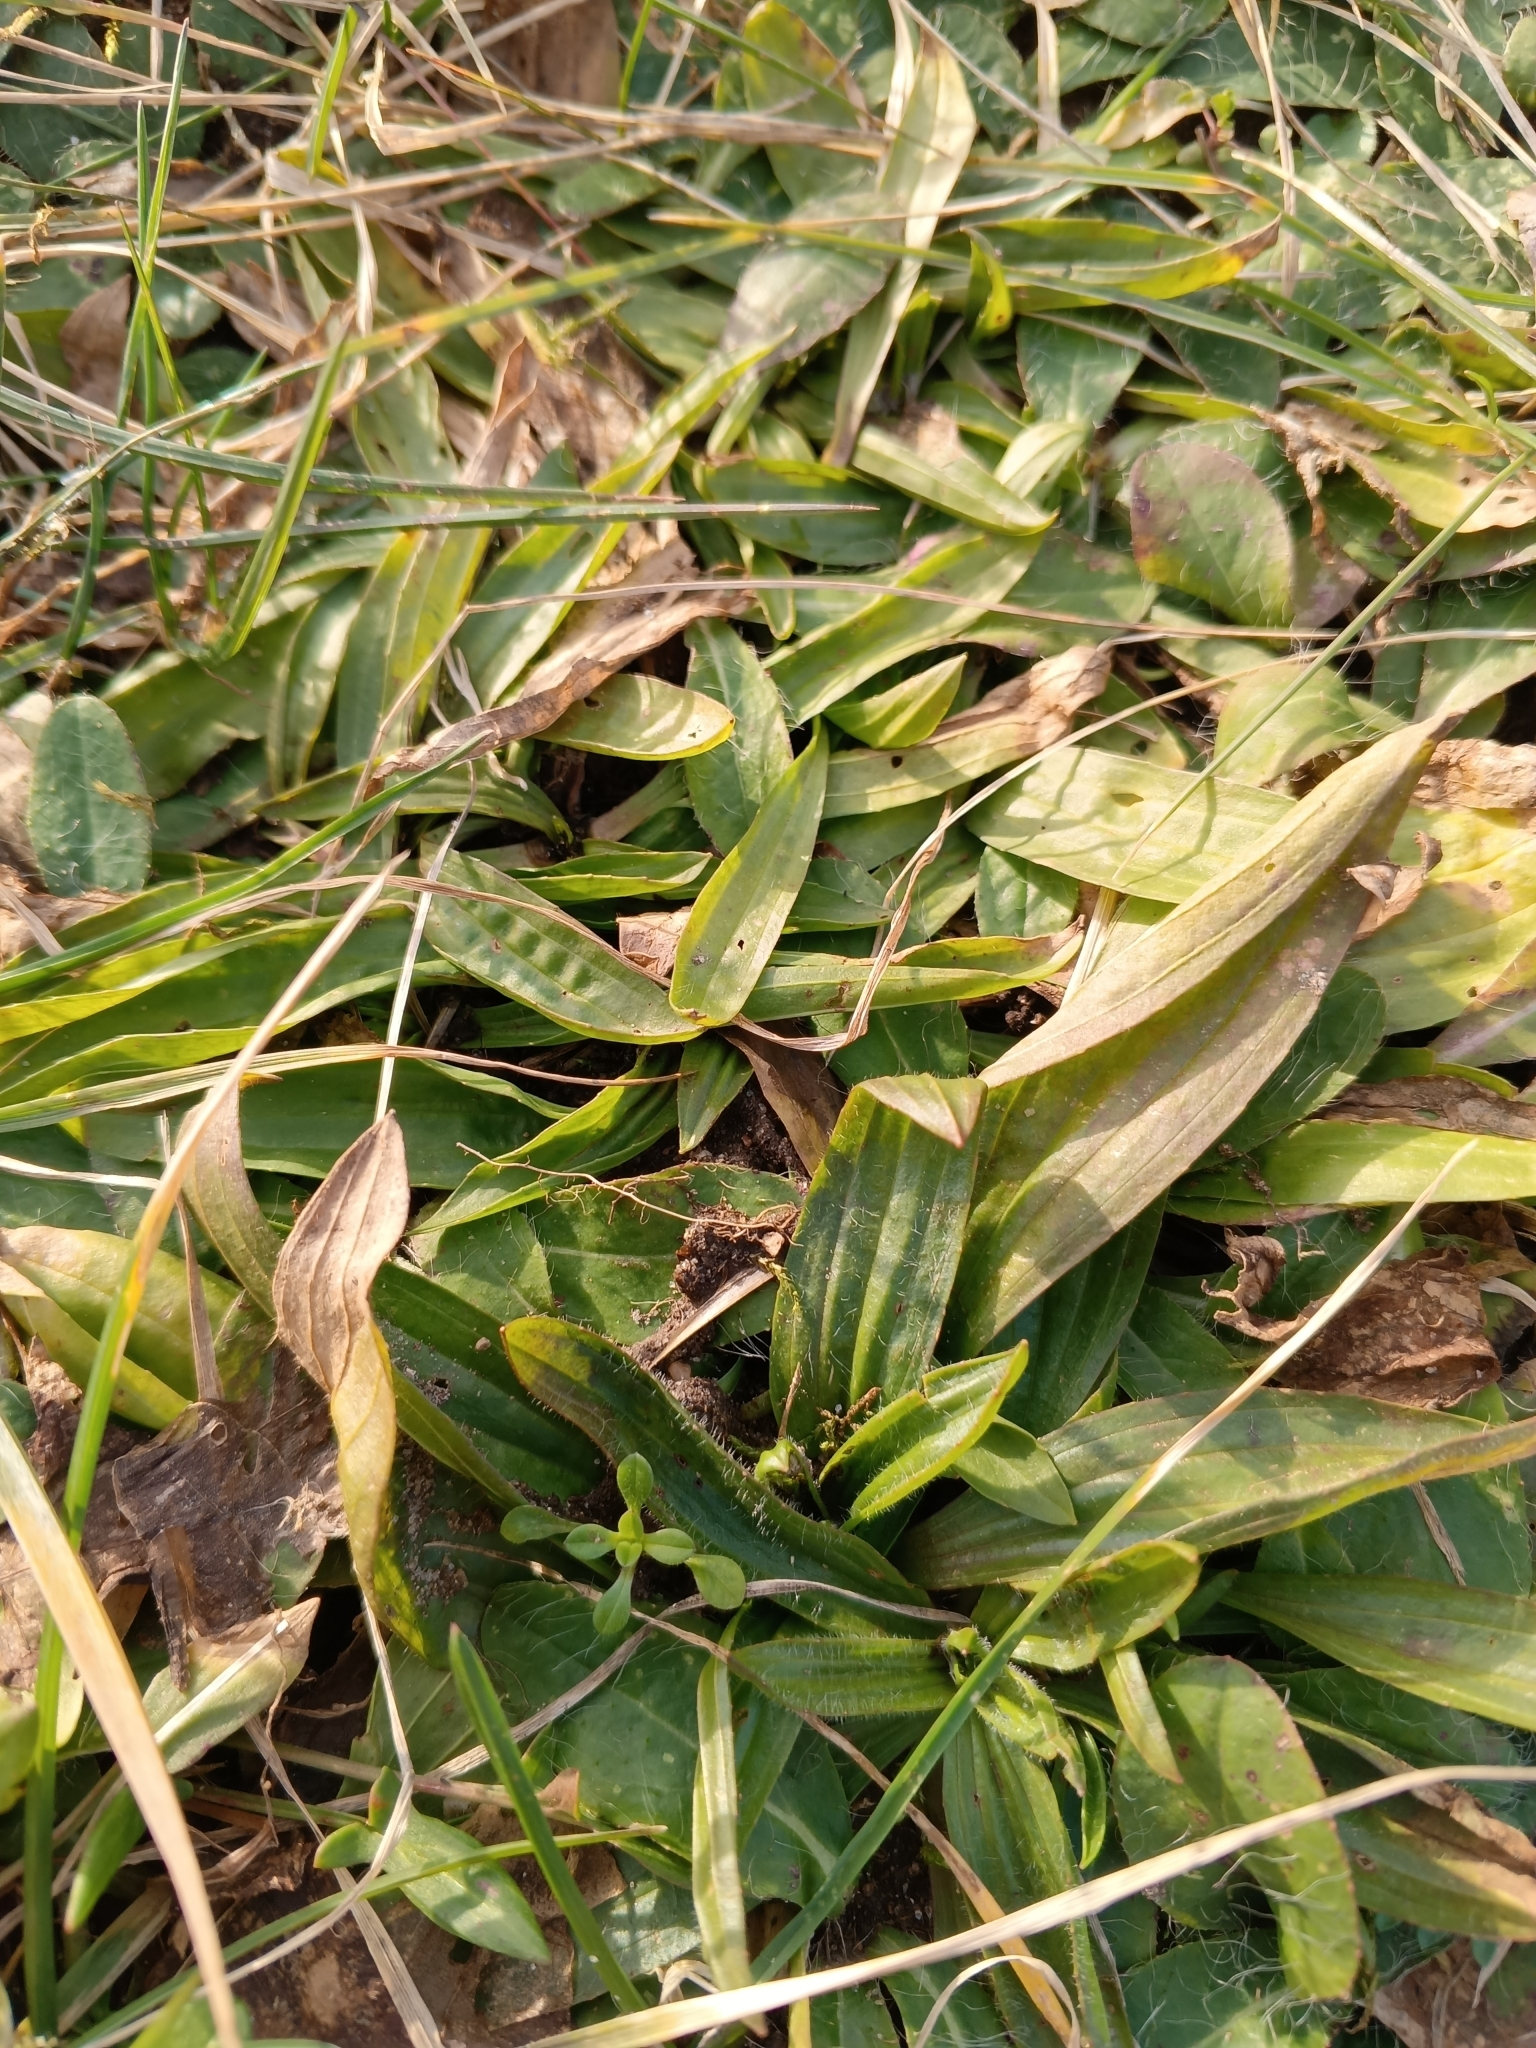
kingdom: Plantae
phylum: Tracheophyta
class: Magnoliopsida
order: Lamiales
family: Plantaginaceae
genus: Plantago
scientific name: Plantago lanceolata
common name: Ribwort plantain
